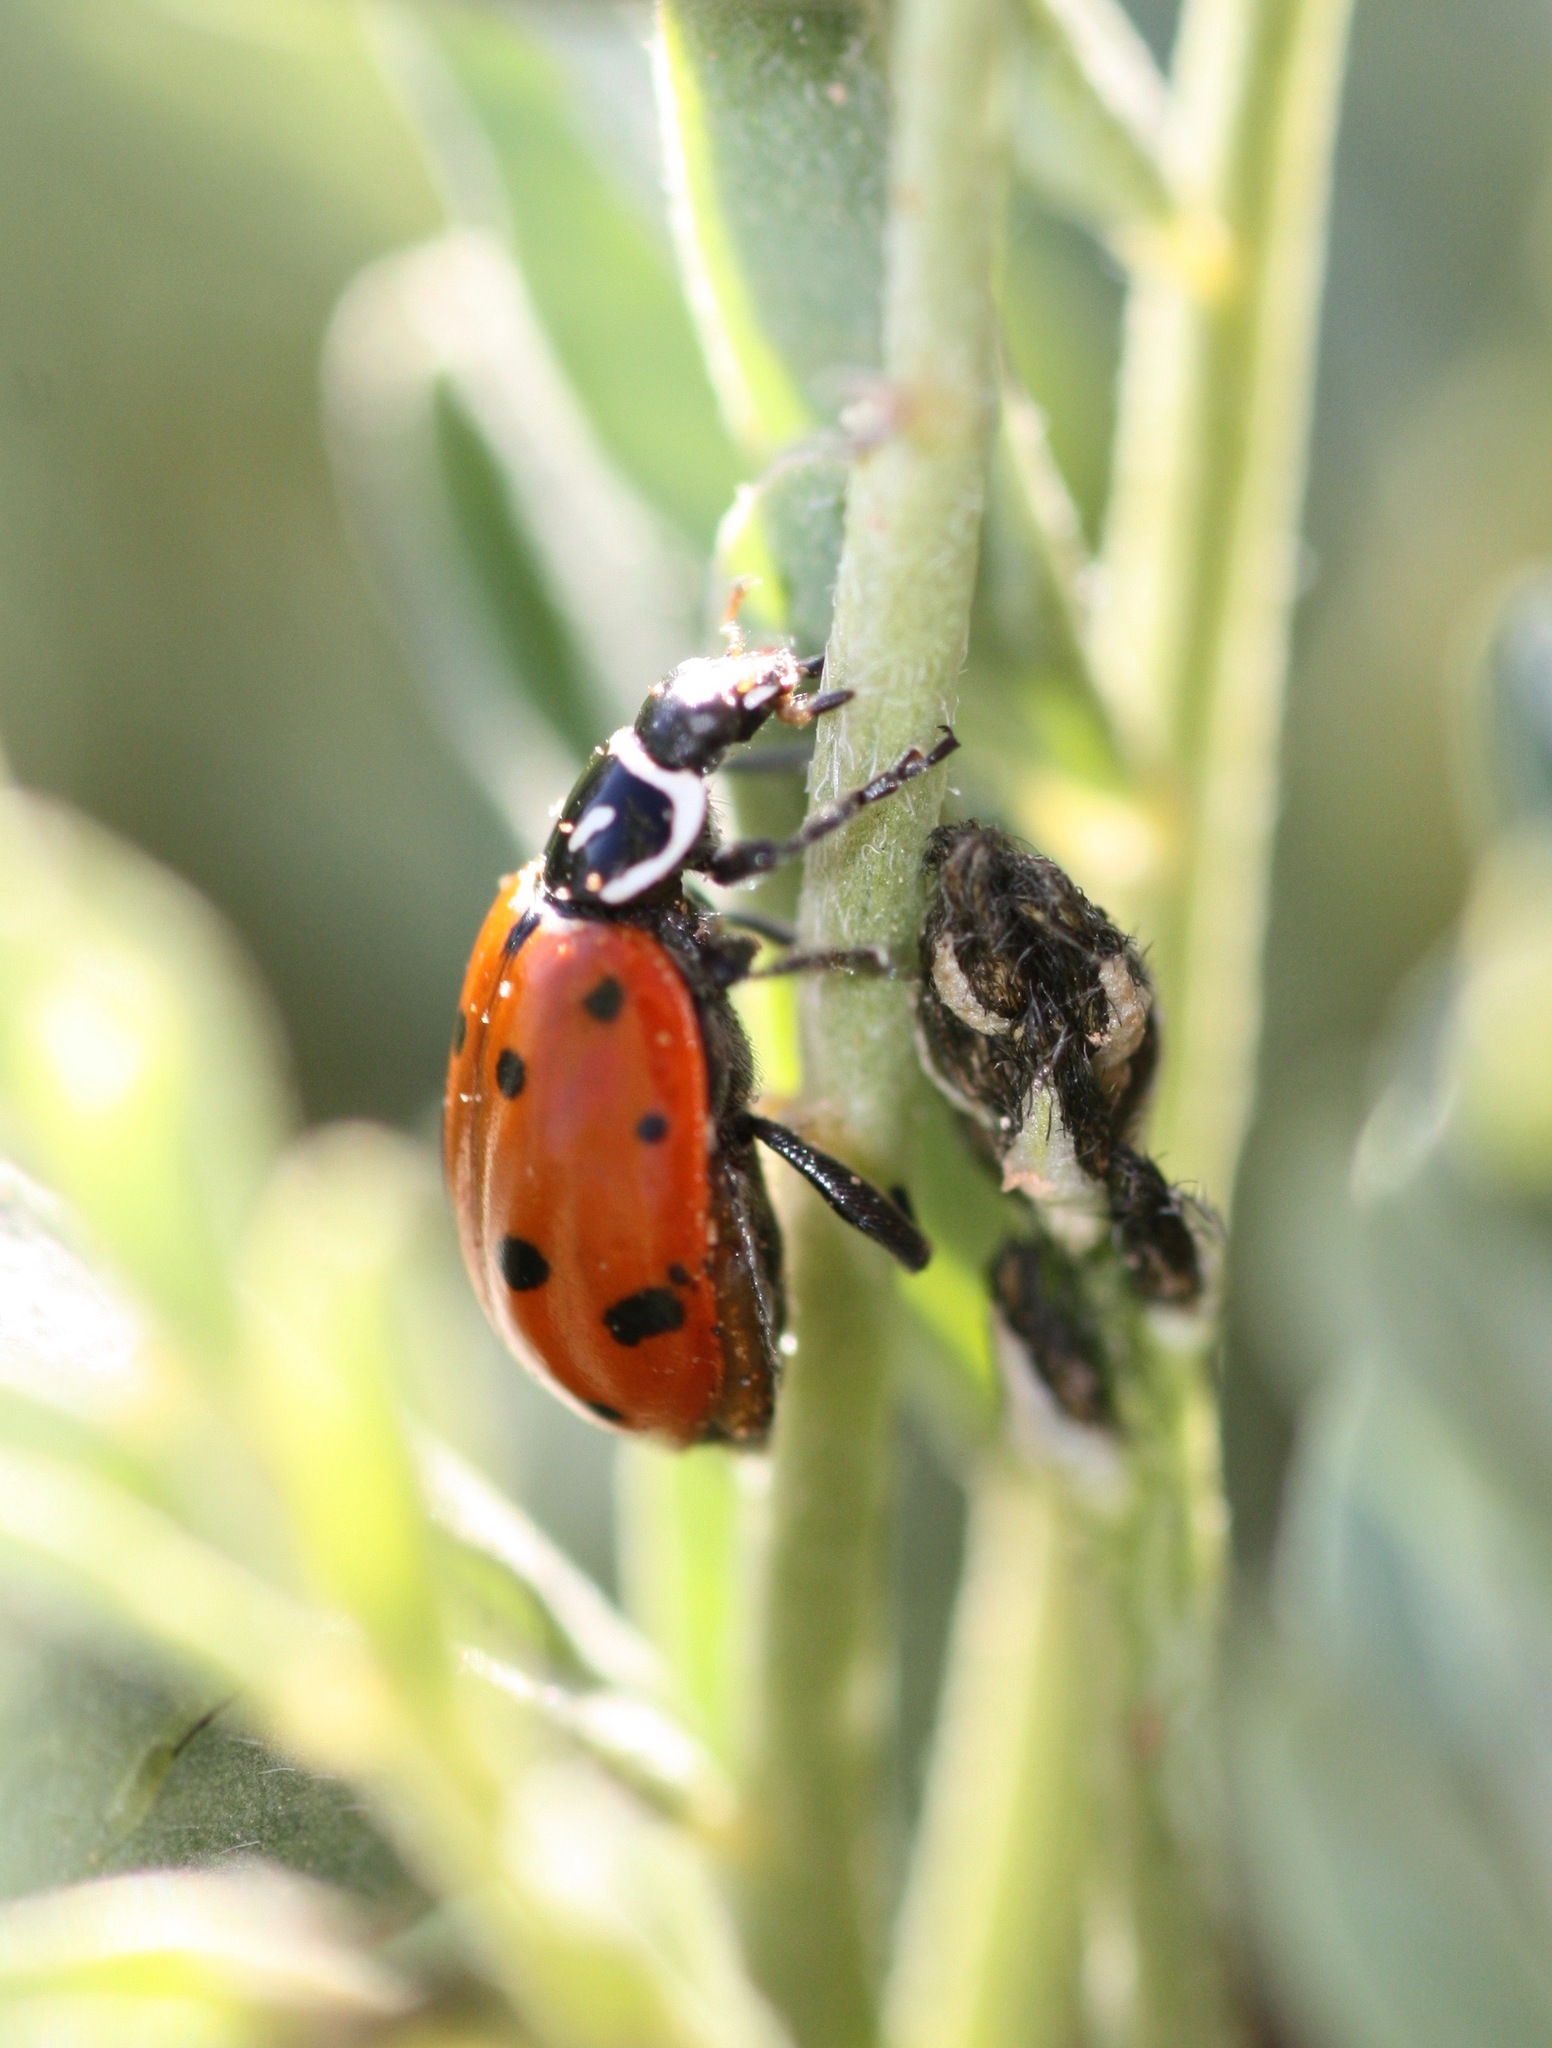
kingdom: Animalia
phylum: Arthropoda
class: Insecta
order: Coleoptera
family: Coccinellidae
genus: Hippodamia
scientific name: Hippodamia convergens
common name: Convergent lady beetle
